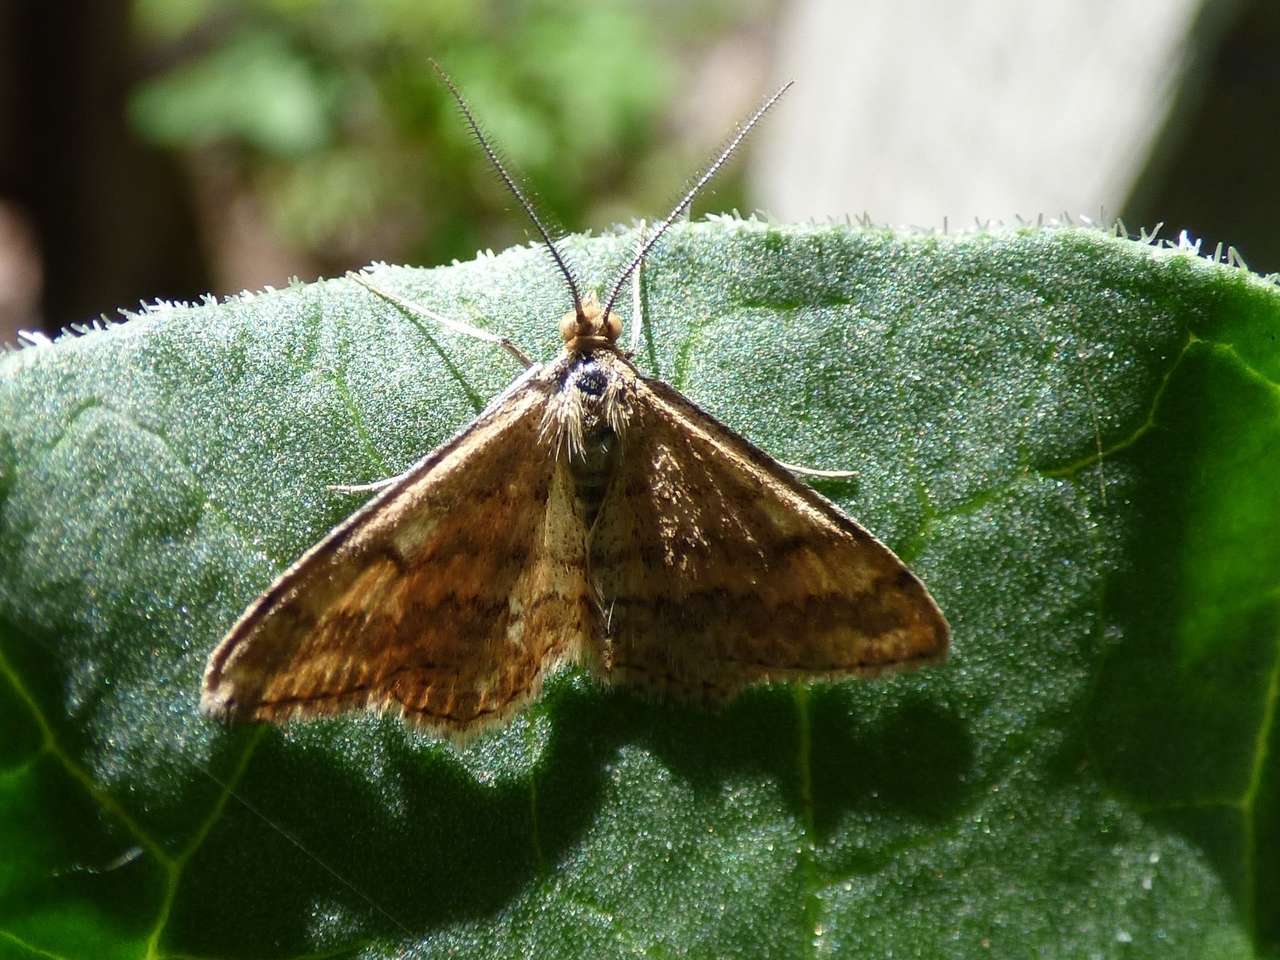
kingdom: Animalia
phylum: Arthropoda
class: Insecta
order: Lepidoptera
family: Geometridae
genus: Scopula
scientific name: Scopula rubraria
